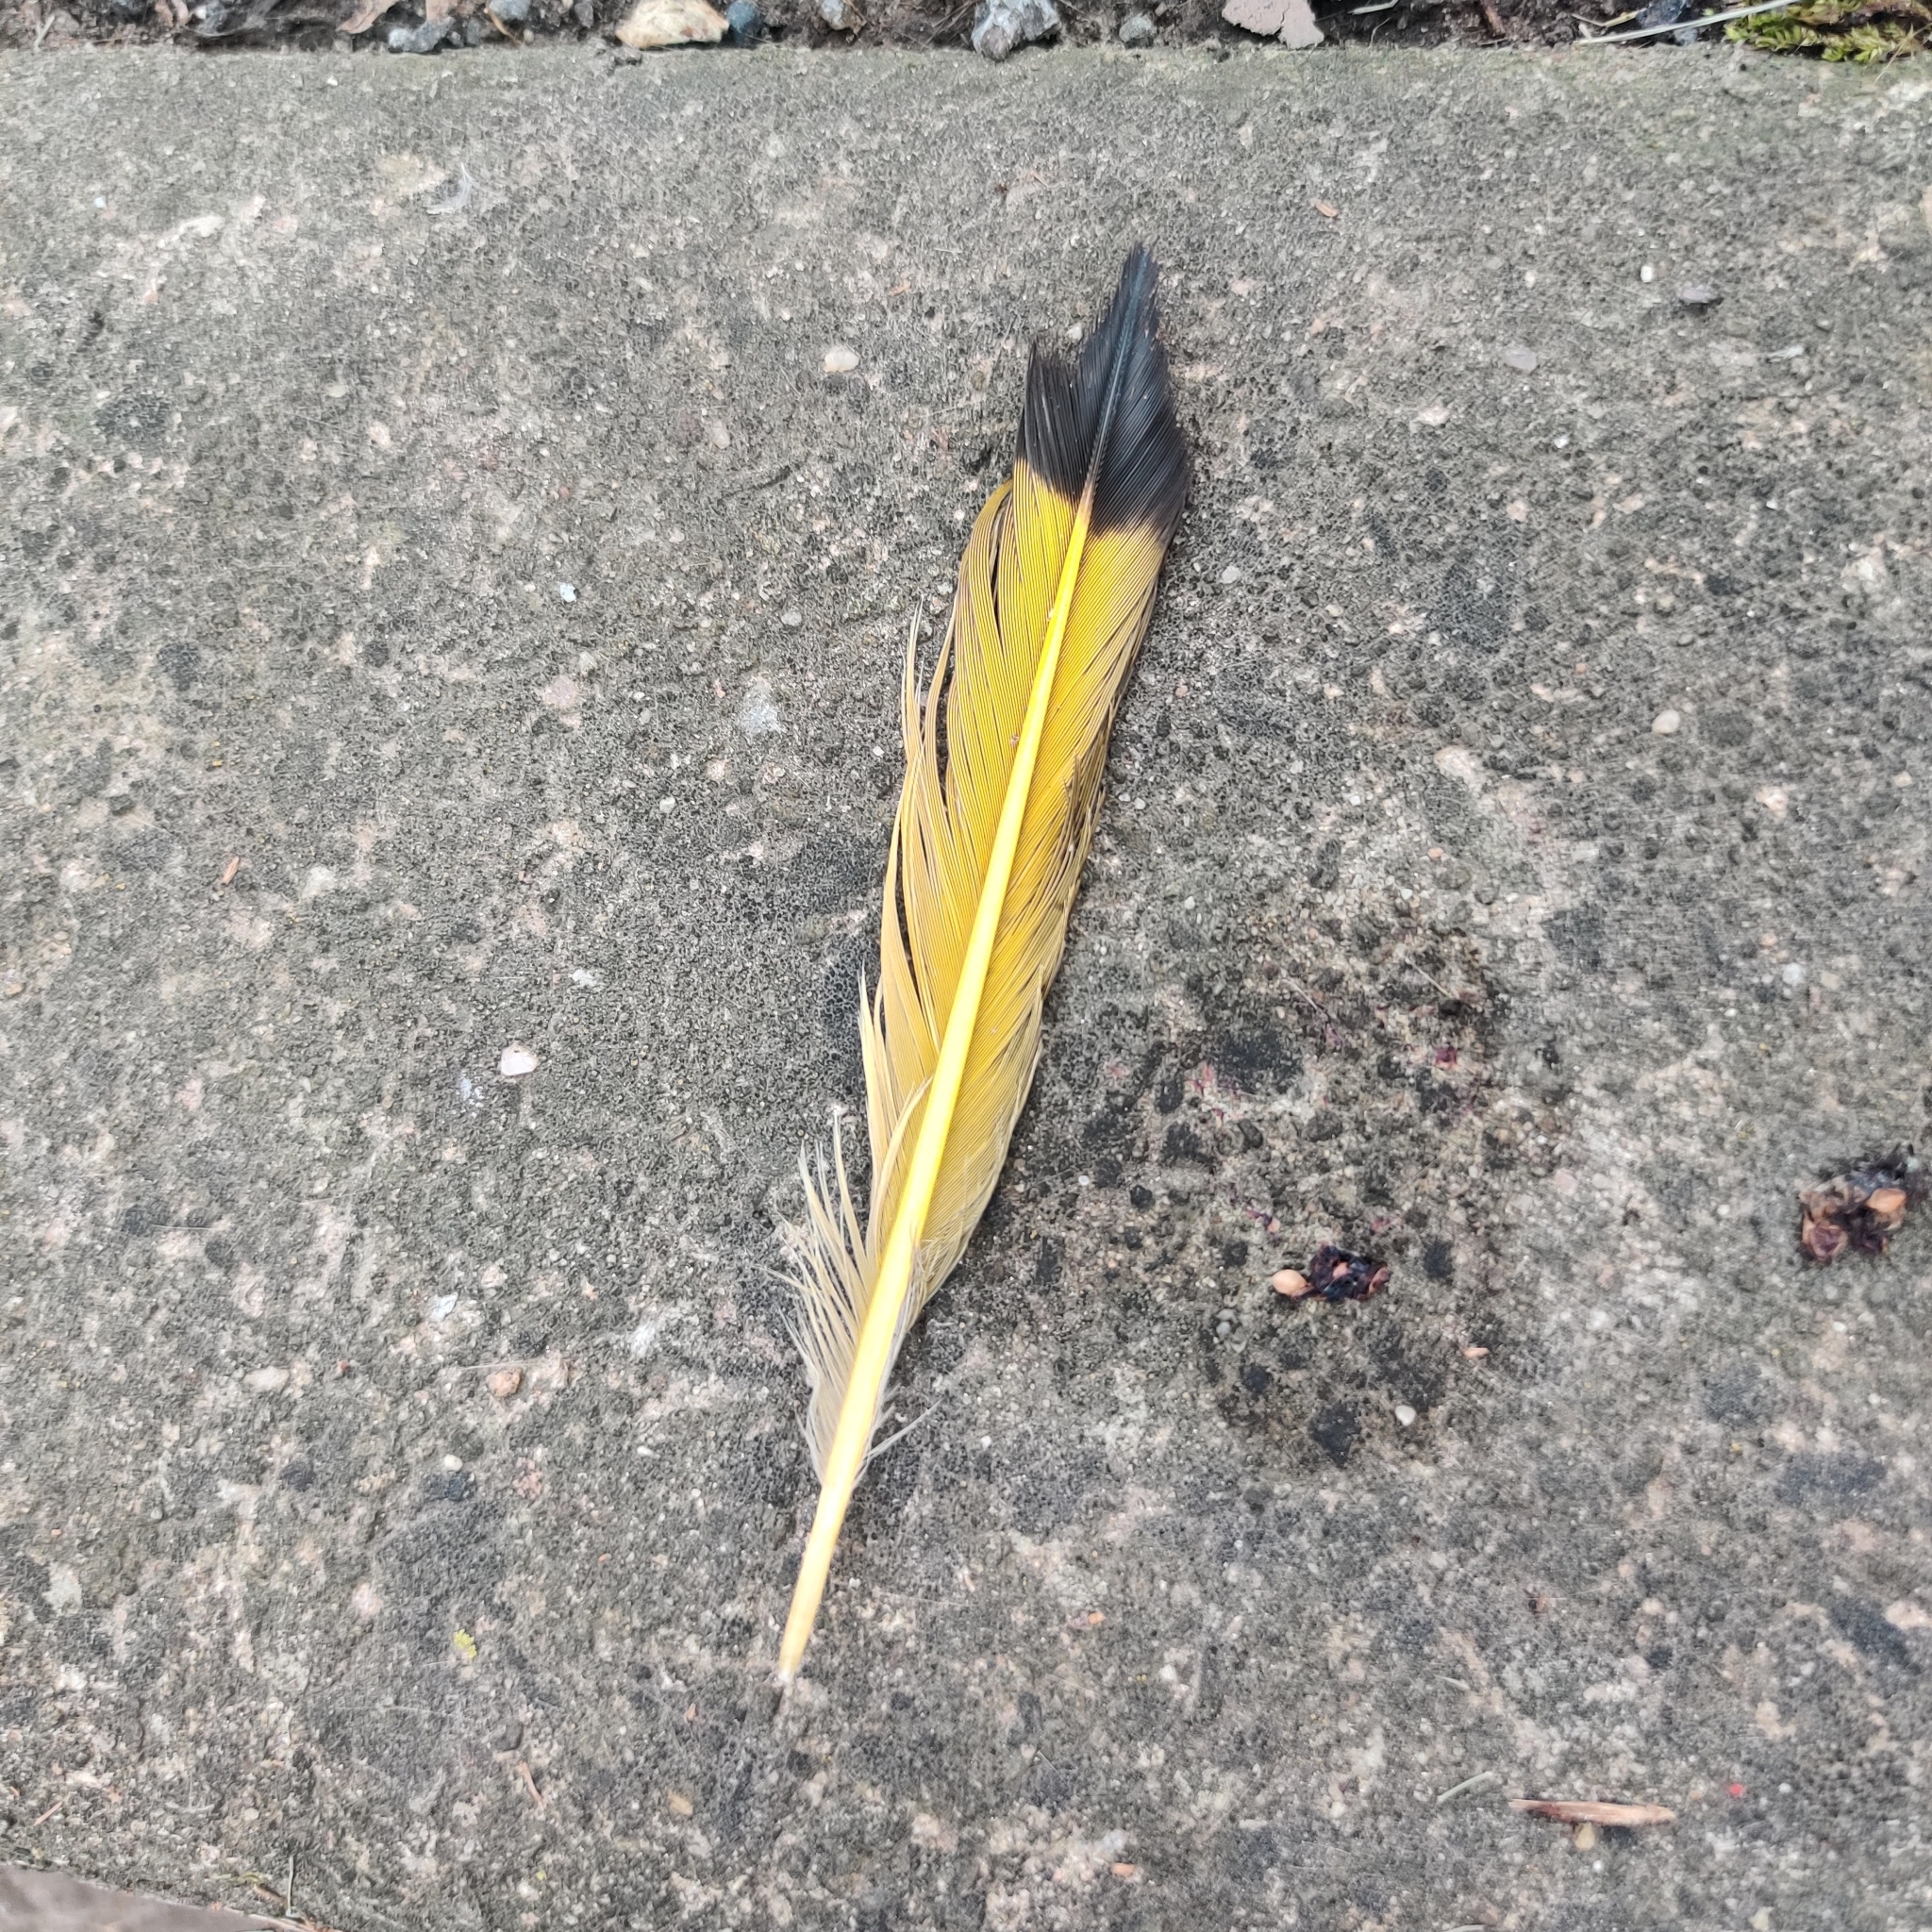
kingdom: Animalia
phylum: Chordata
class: Aves
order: Piciformes
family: Picidae
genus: Colaptes
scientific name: Colaptes auratus
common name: Northern flicker
